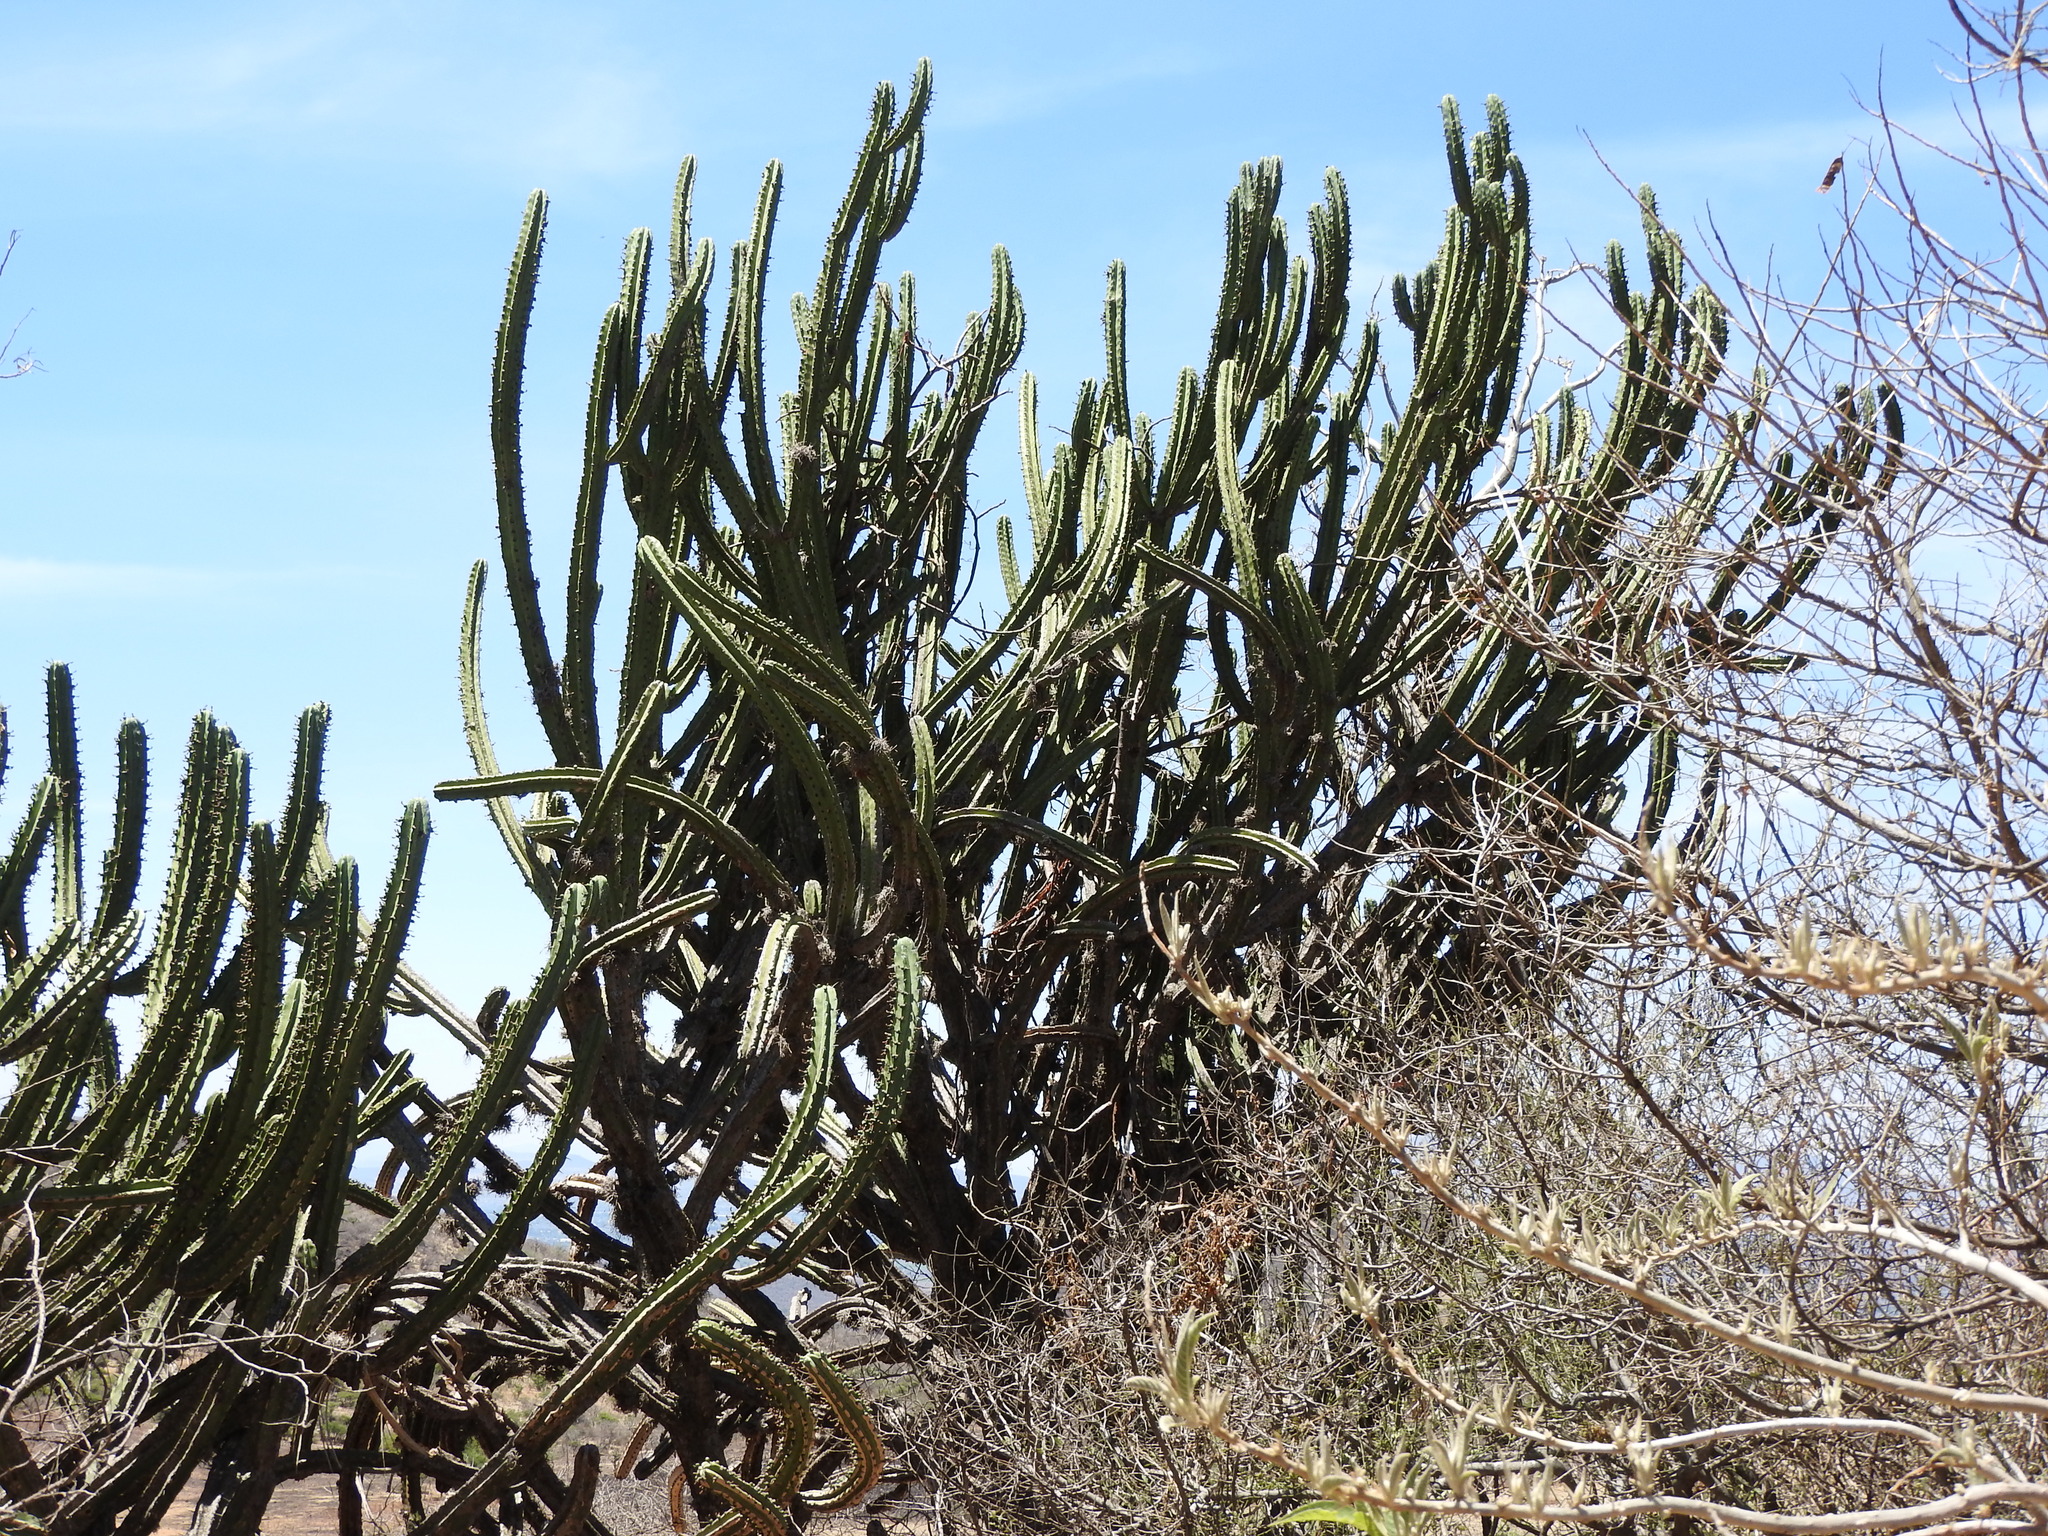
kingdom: Plantae
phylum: Tracheophyta
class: Magnoliopsida
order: Caryophyllales
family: Cactaceae
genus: Myrtillocactus
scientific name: Myrtillocactus geometrizans
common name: Bilberry cactus
